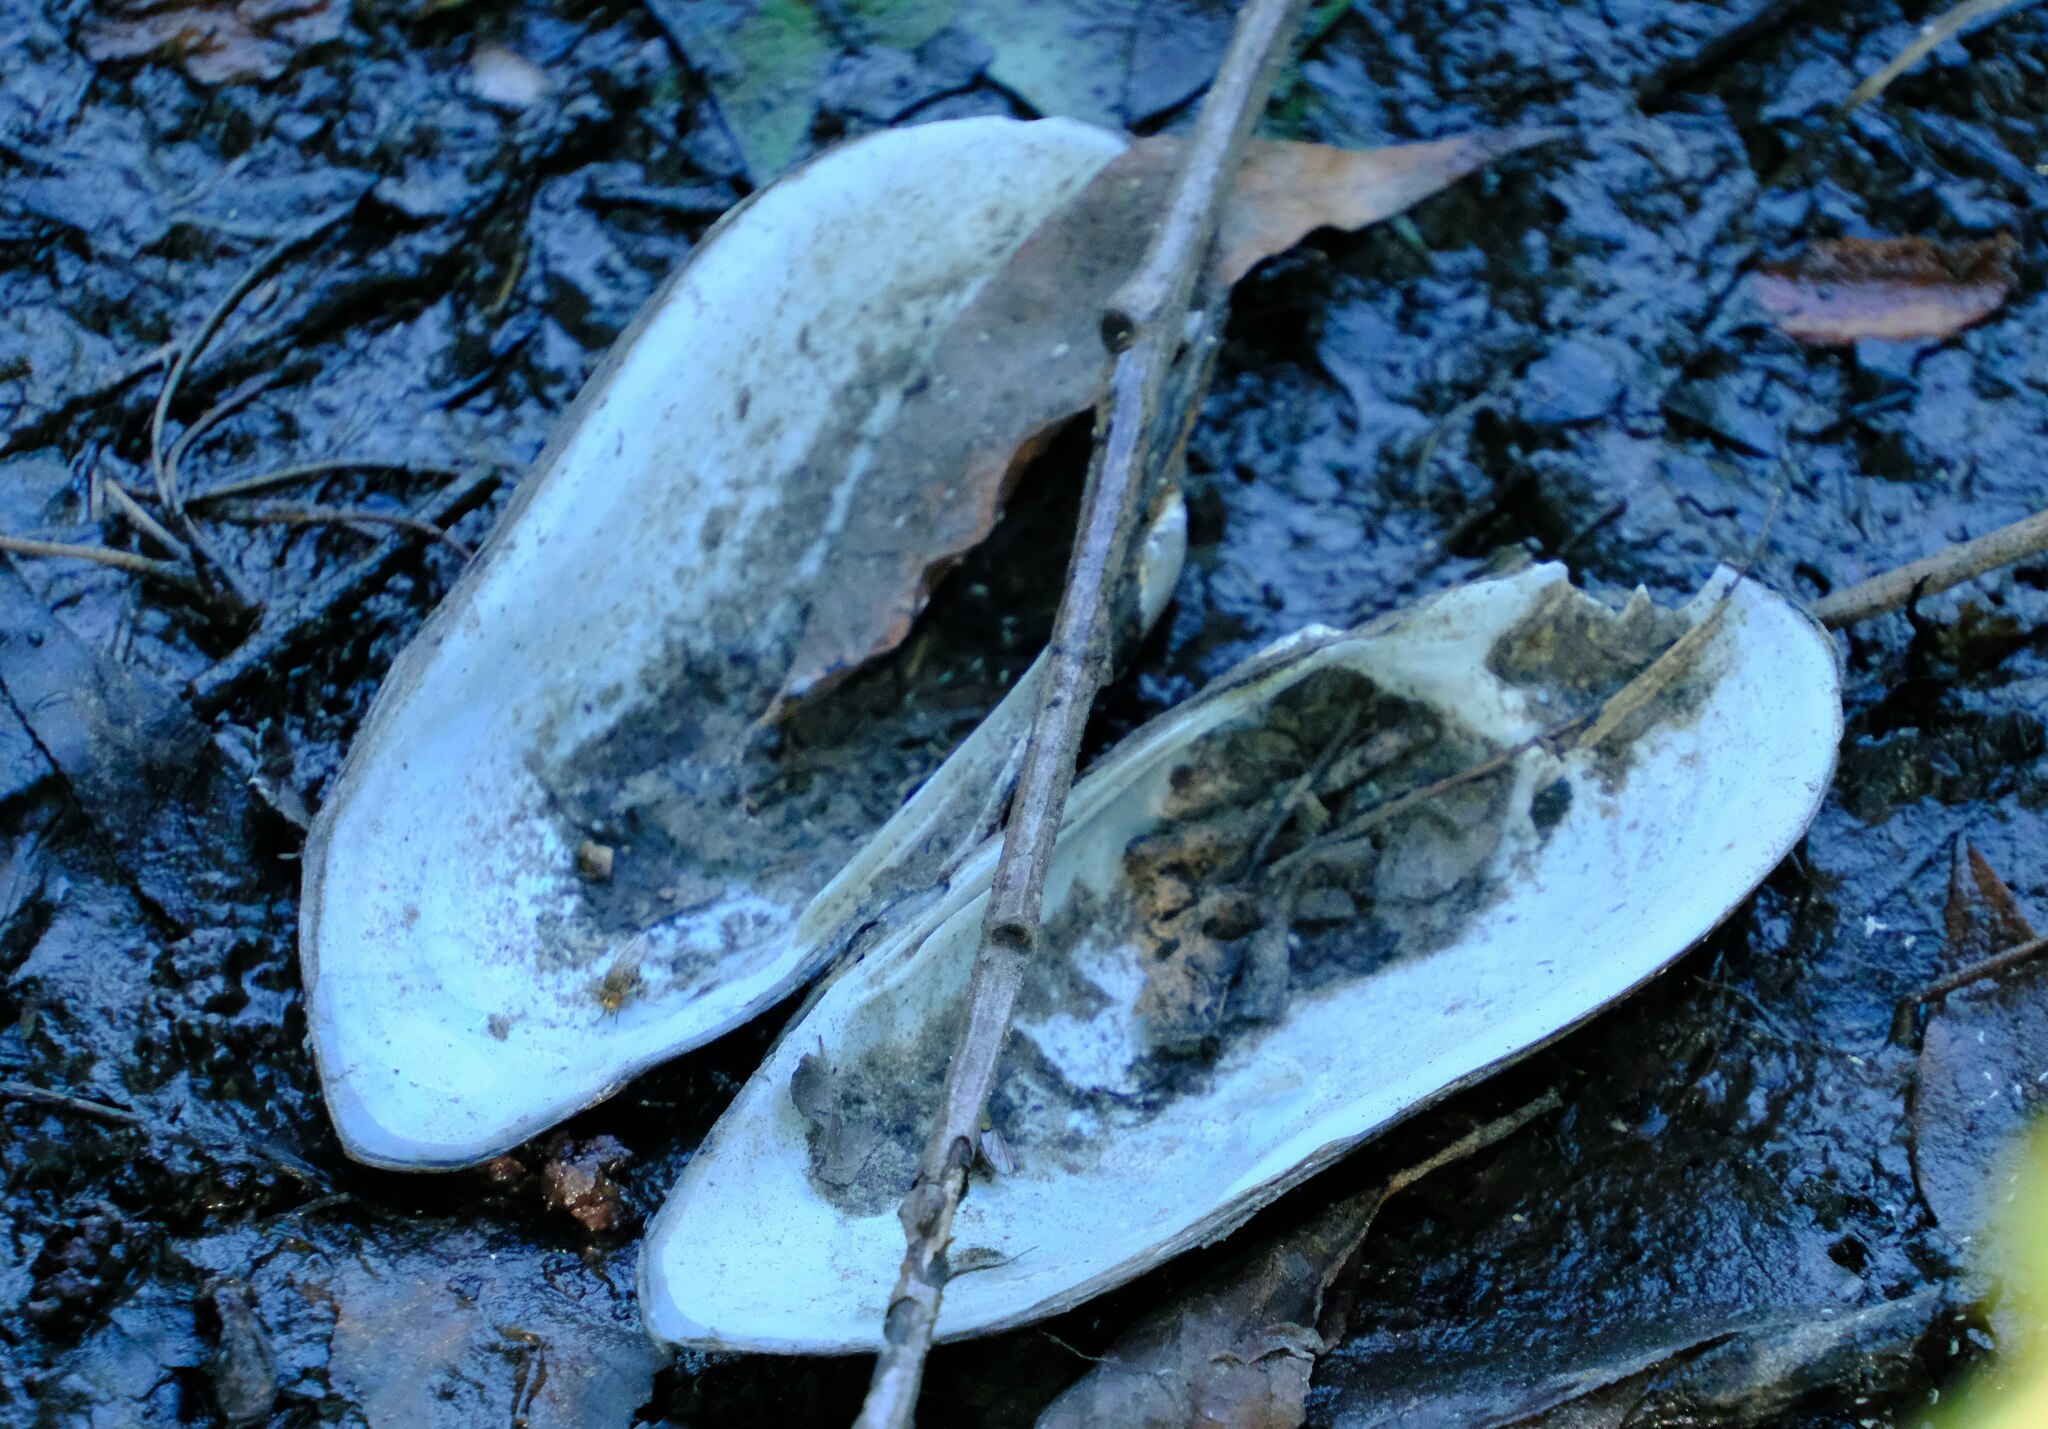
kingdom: Animalia
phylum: Mollusca
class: Bivalvia
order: Unionida
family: Unionidae
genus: Unio
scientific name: Unio pictorum
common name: Painter's mussel
